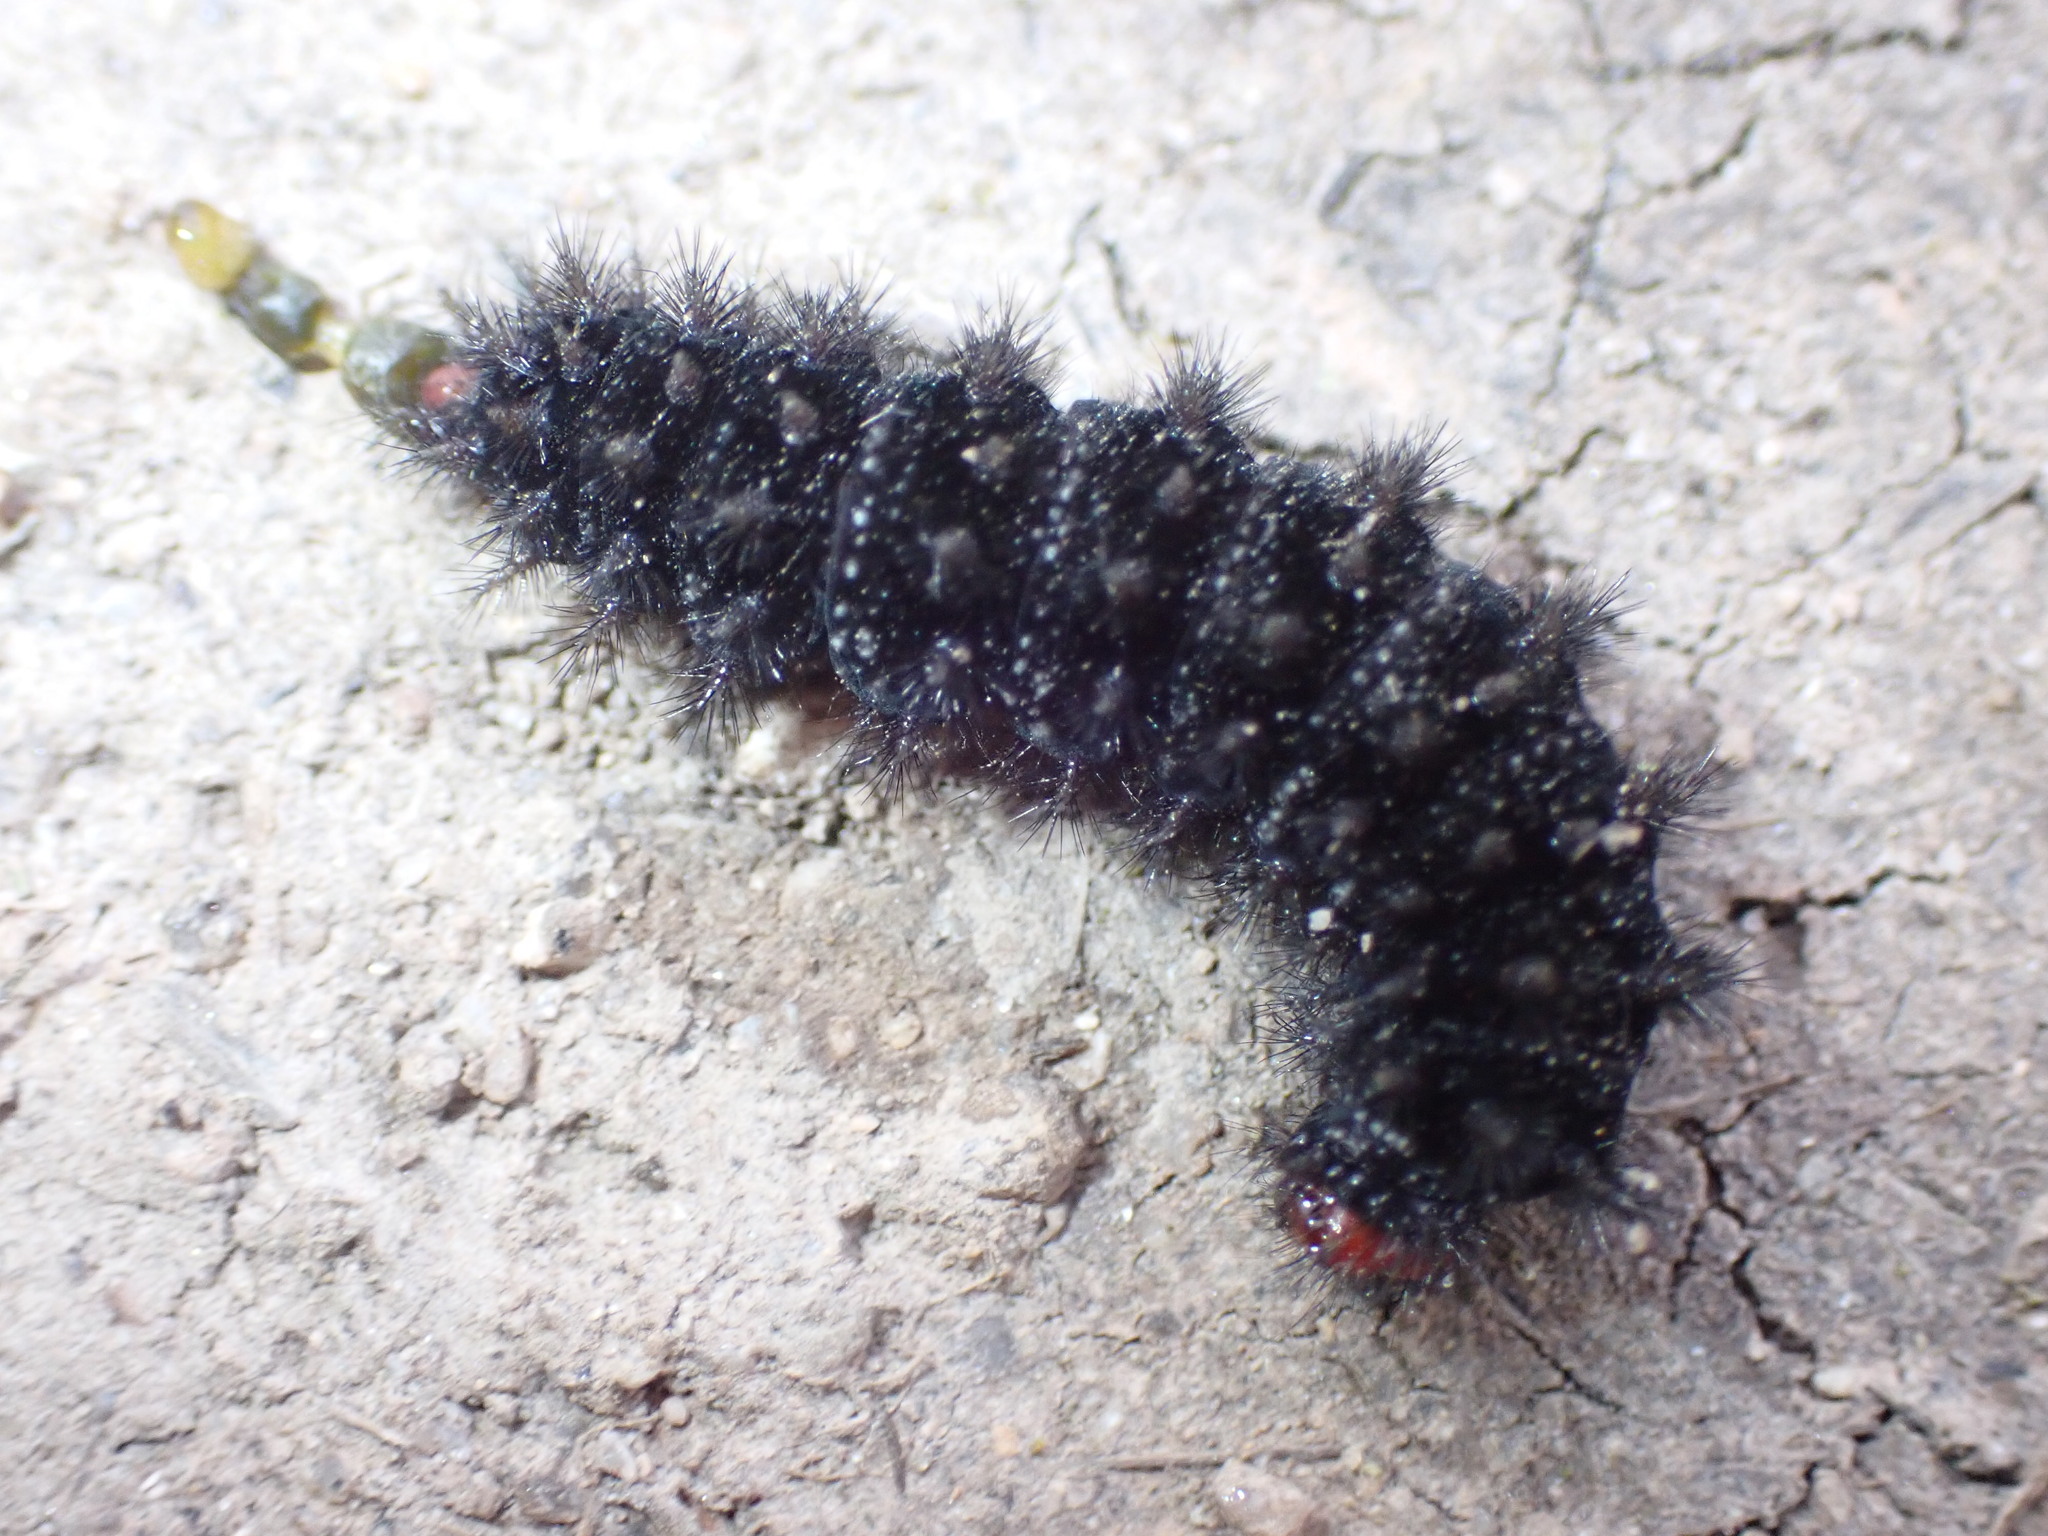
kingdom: Animalia
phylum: Arthropoda
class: Insecta
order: Lepidoptera
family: Nymphalidae
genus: Melitaea
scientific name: Melitaea cinxia
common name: Glanville fritillary
